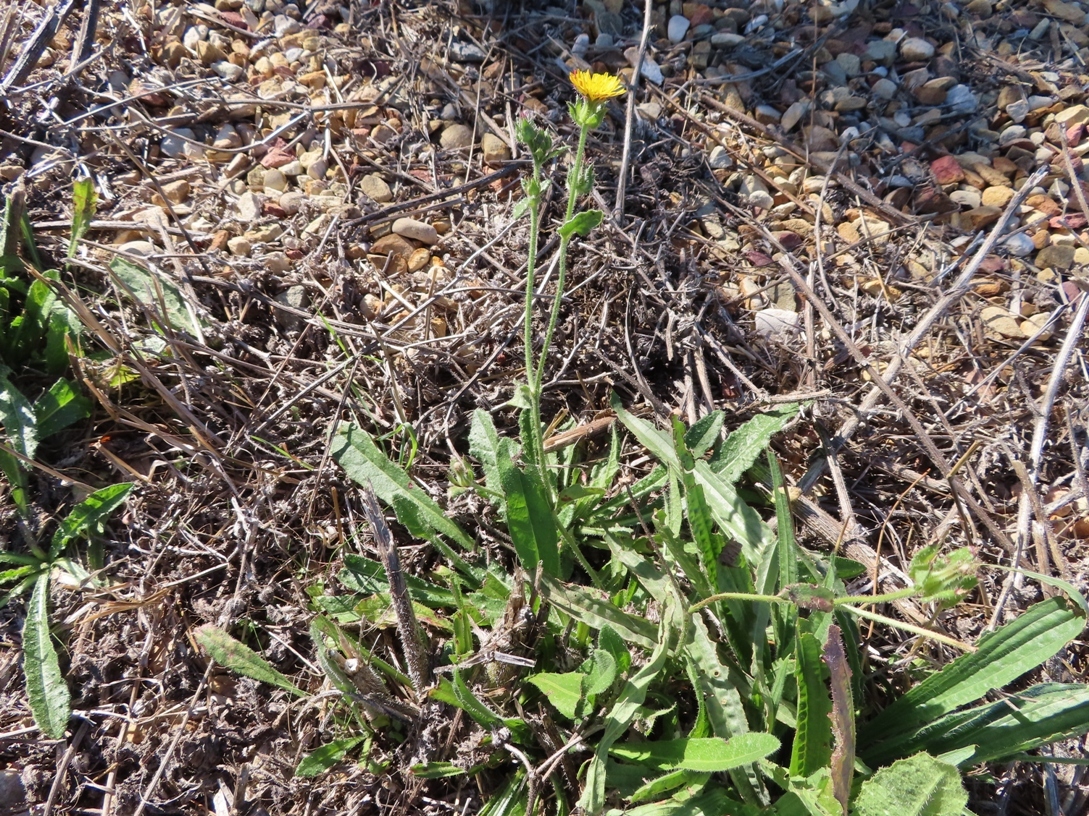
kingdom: Plantae
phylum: Tracheophyta
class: Magnoliopsida
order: Asterales
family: Asteraceae
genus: Helminthotheca
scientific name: Helminthotheca echioides
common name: Ox-tongue
